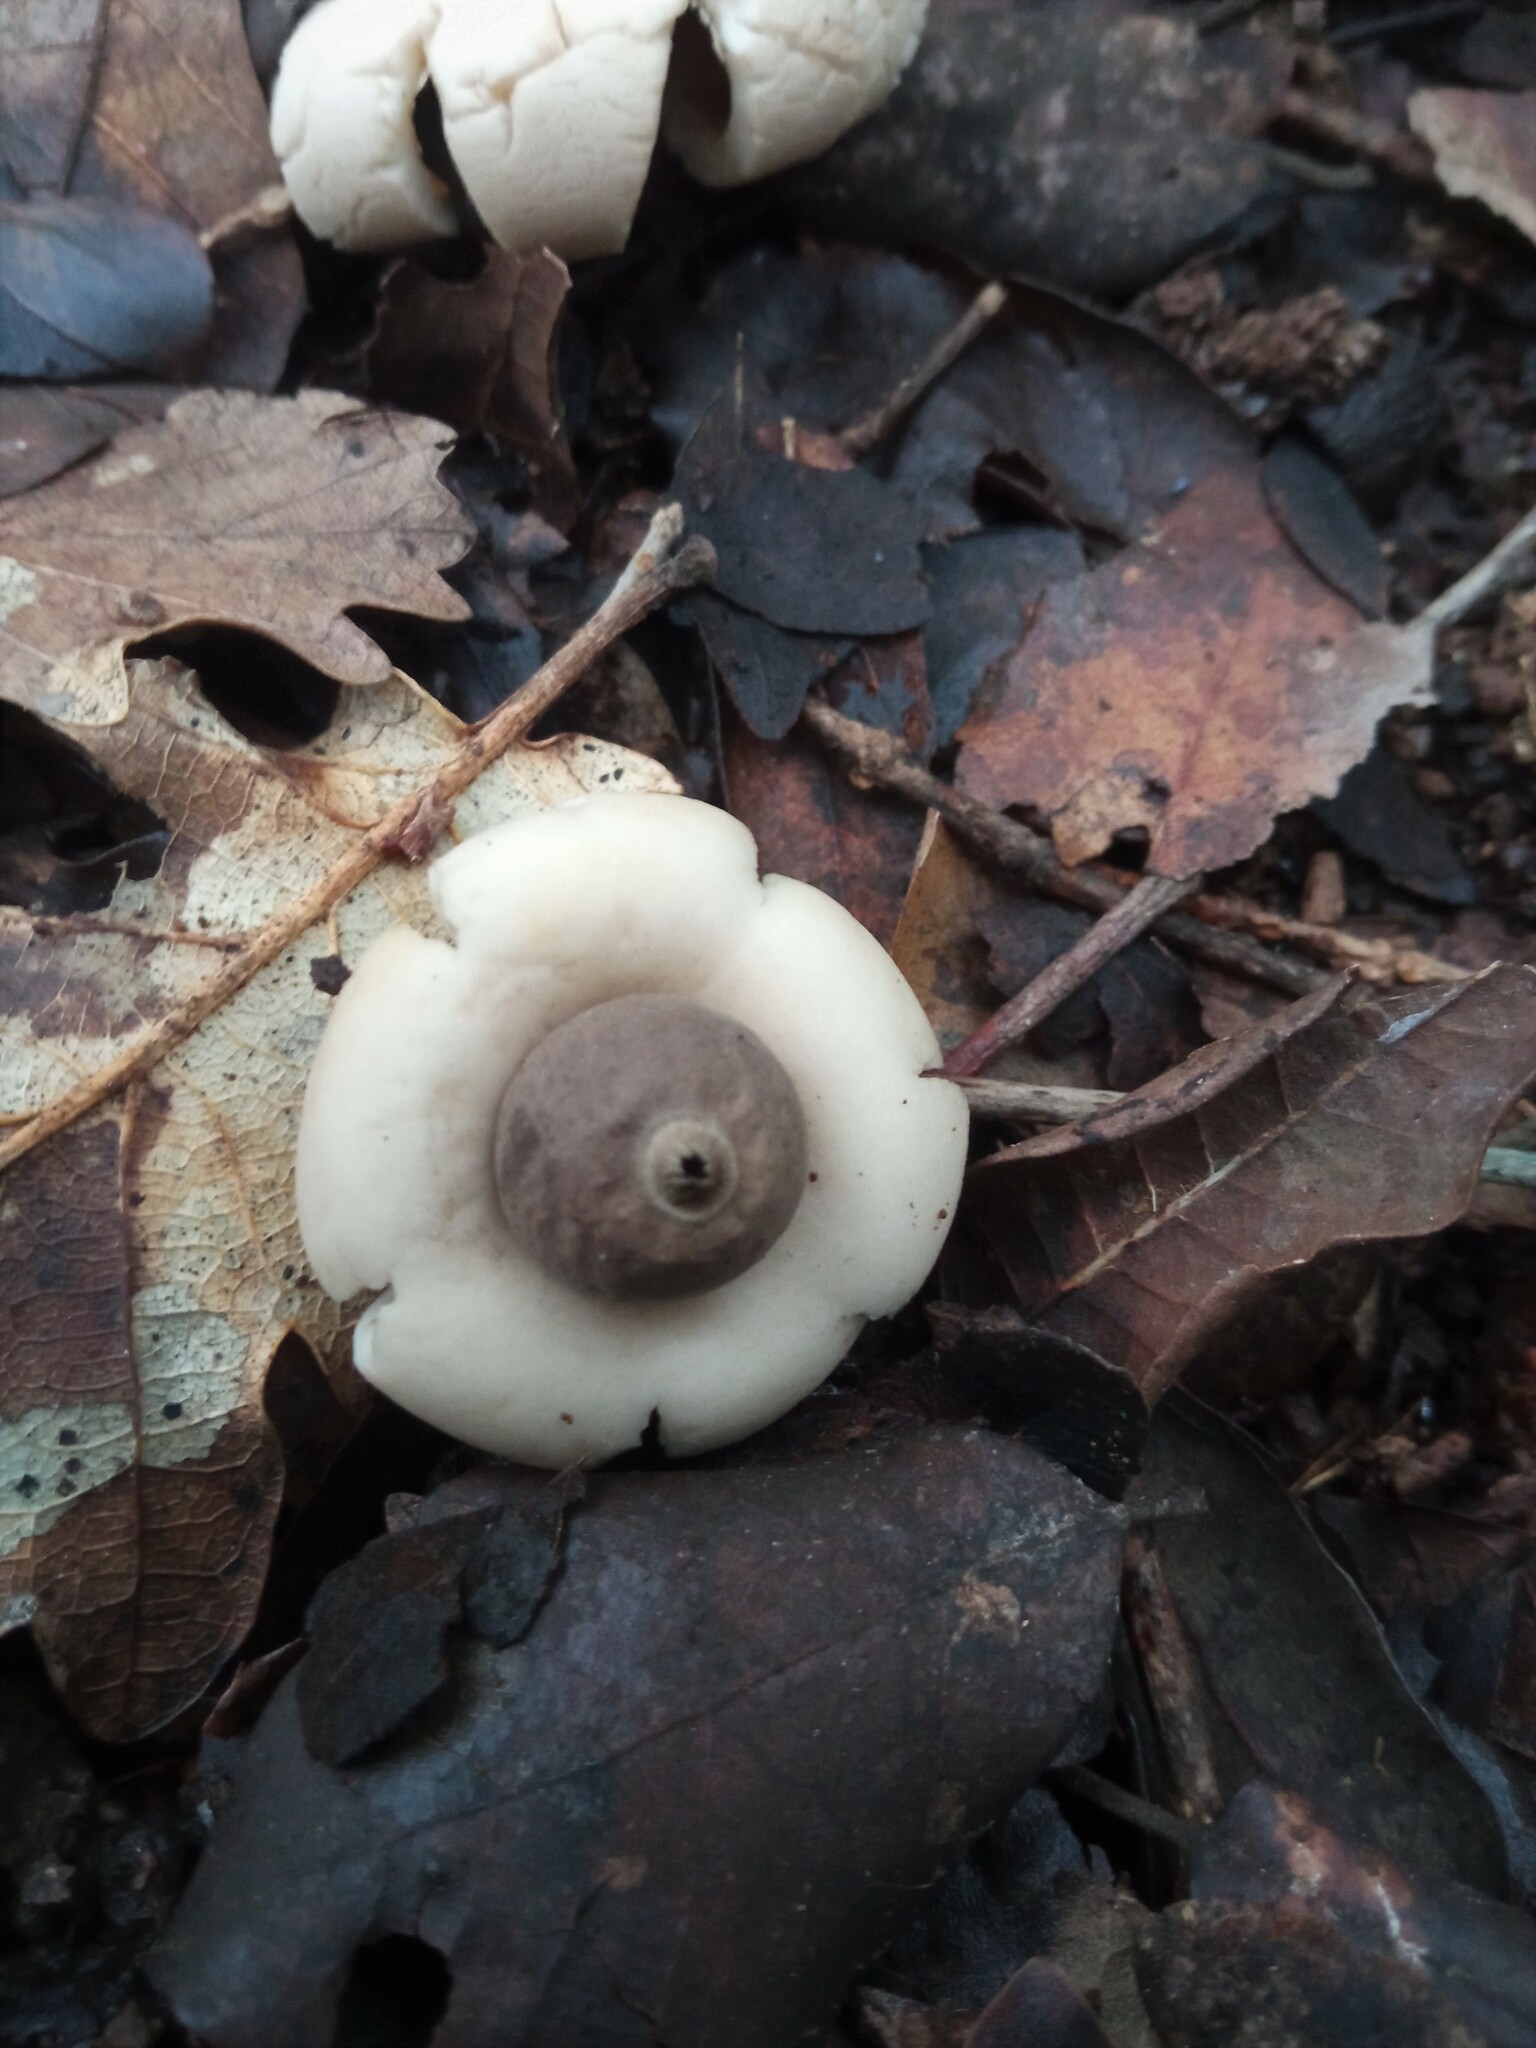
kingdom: Fungi
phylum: Basidiomycota
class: Agaricomycetes
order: Geastrales
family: Geastraceae
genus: Geastrum
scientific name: Geastrum saccatum
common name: Rounded earthstar
